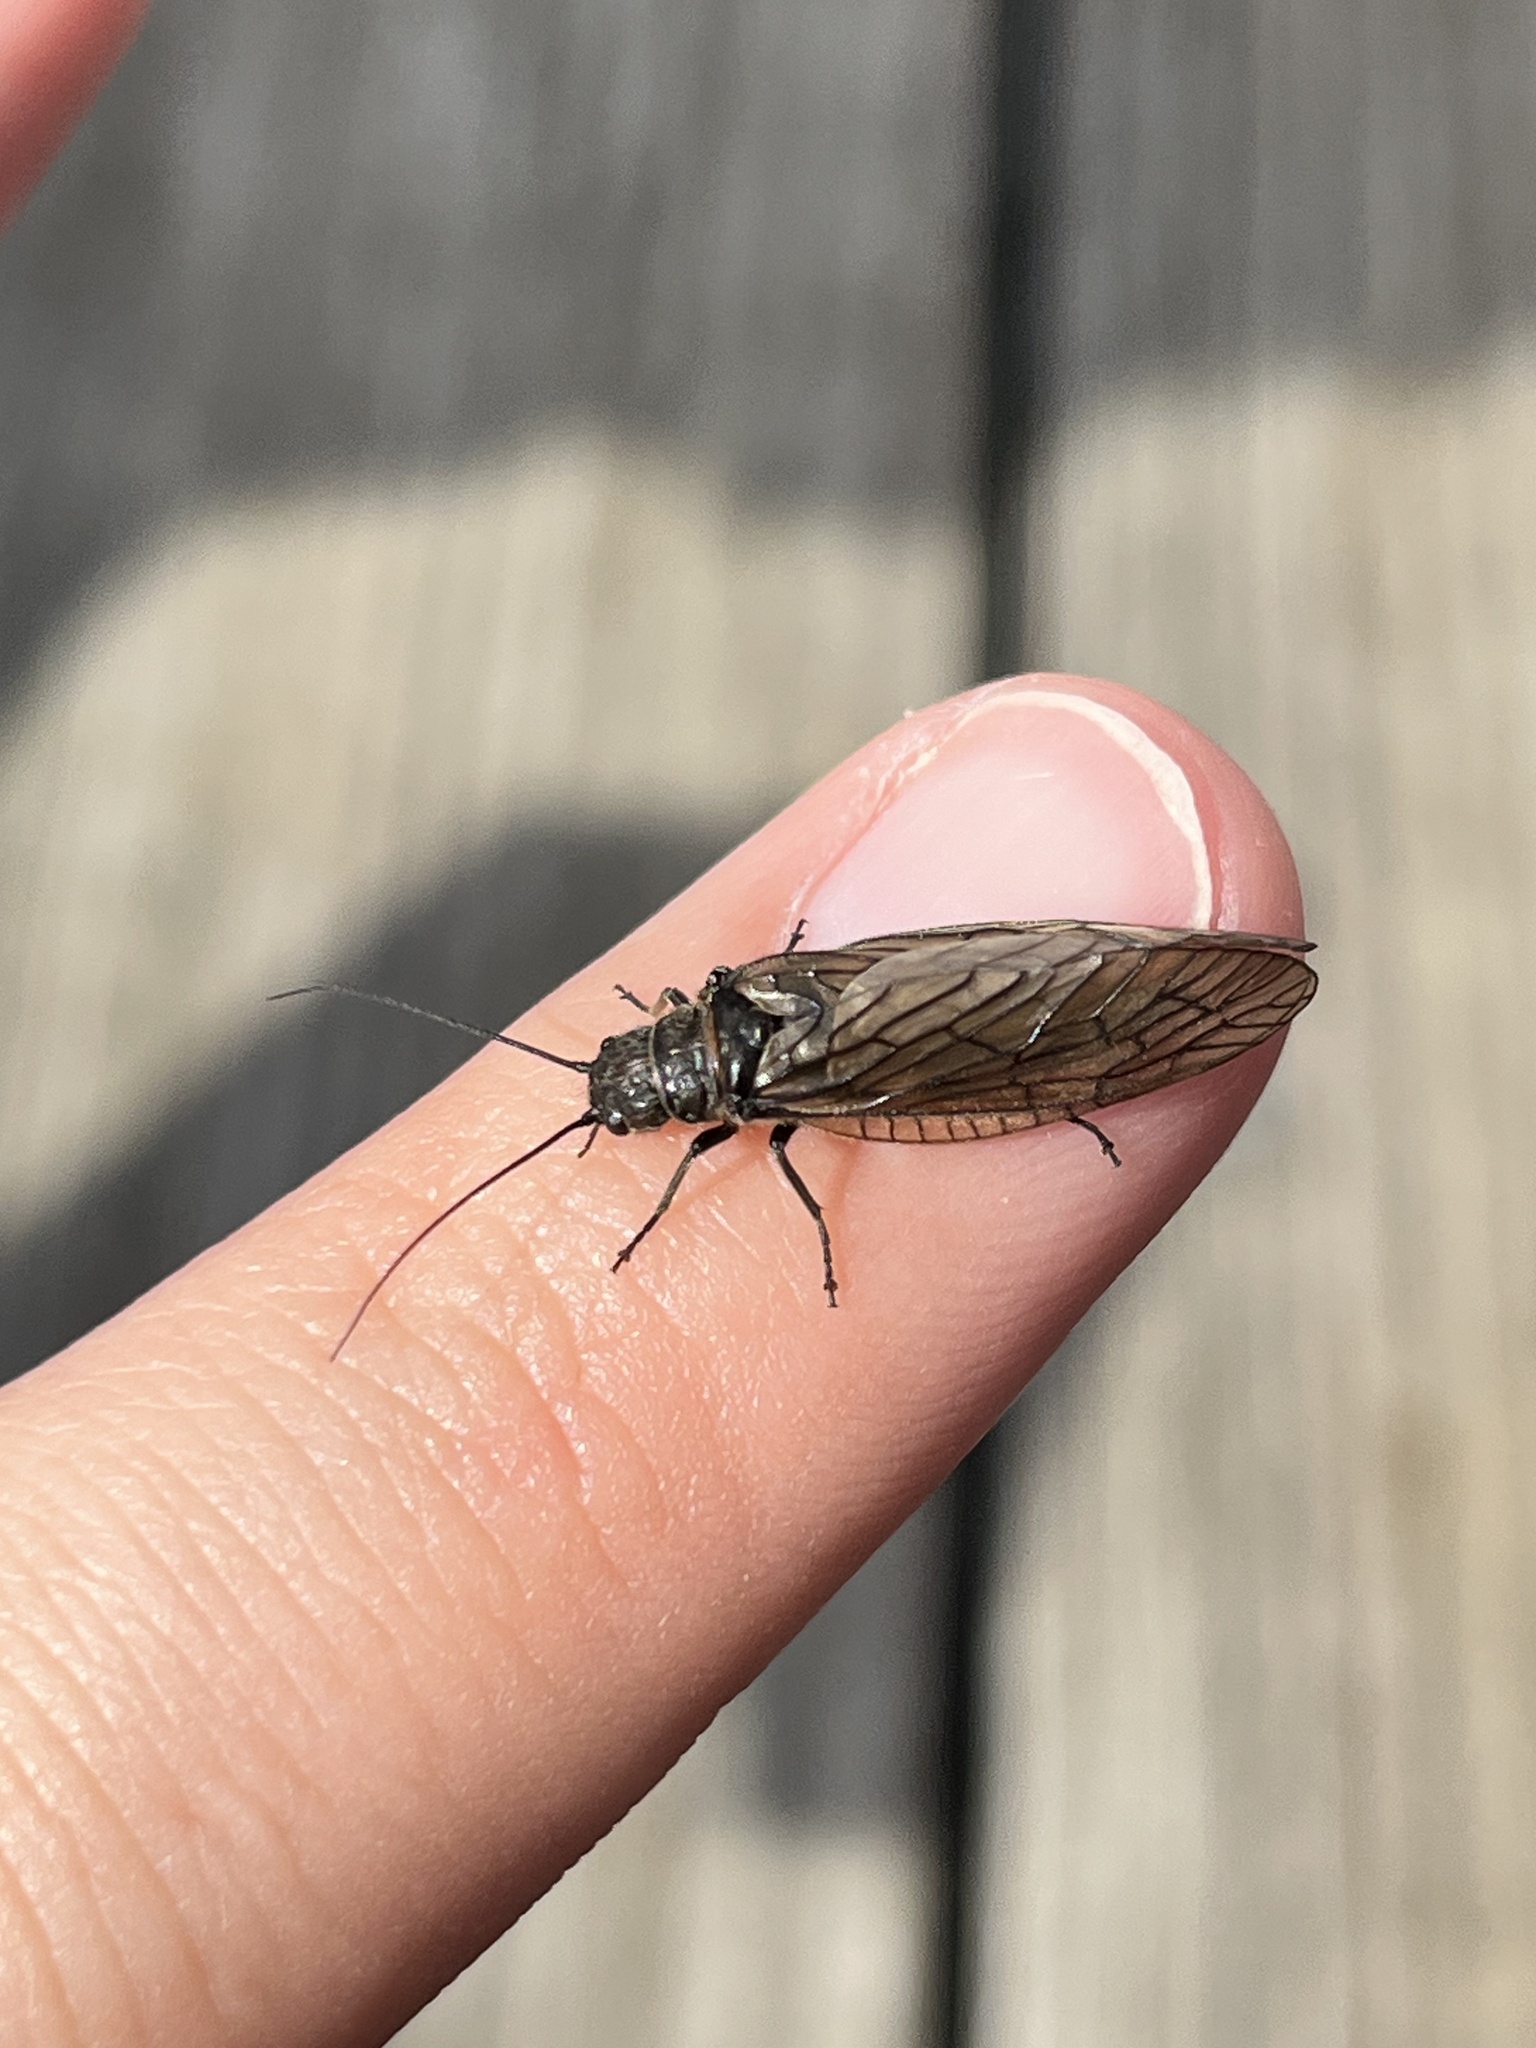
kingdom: Animalia
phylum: Arthropoda
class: Insecta
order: Megaloptera
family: Sialidae
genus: Sialis
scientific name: Sialis
